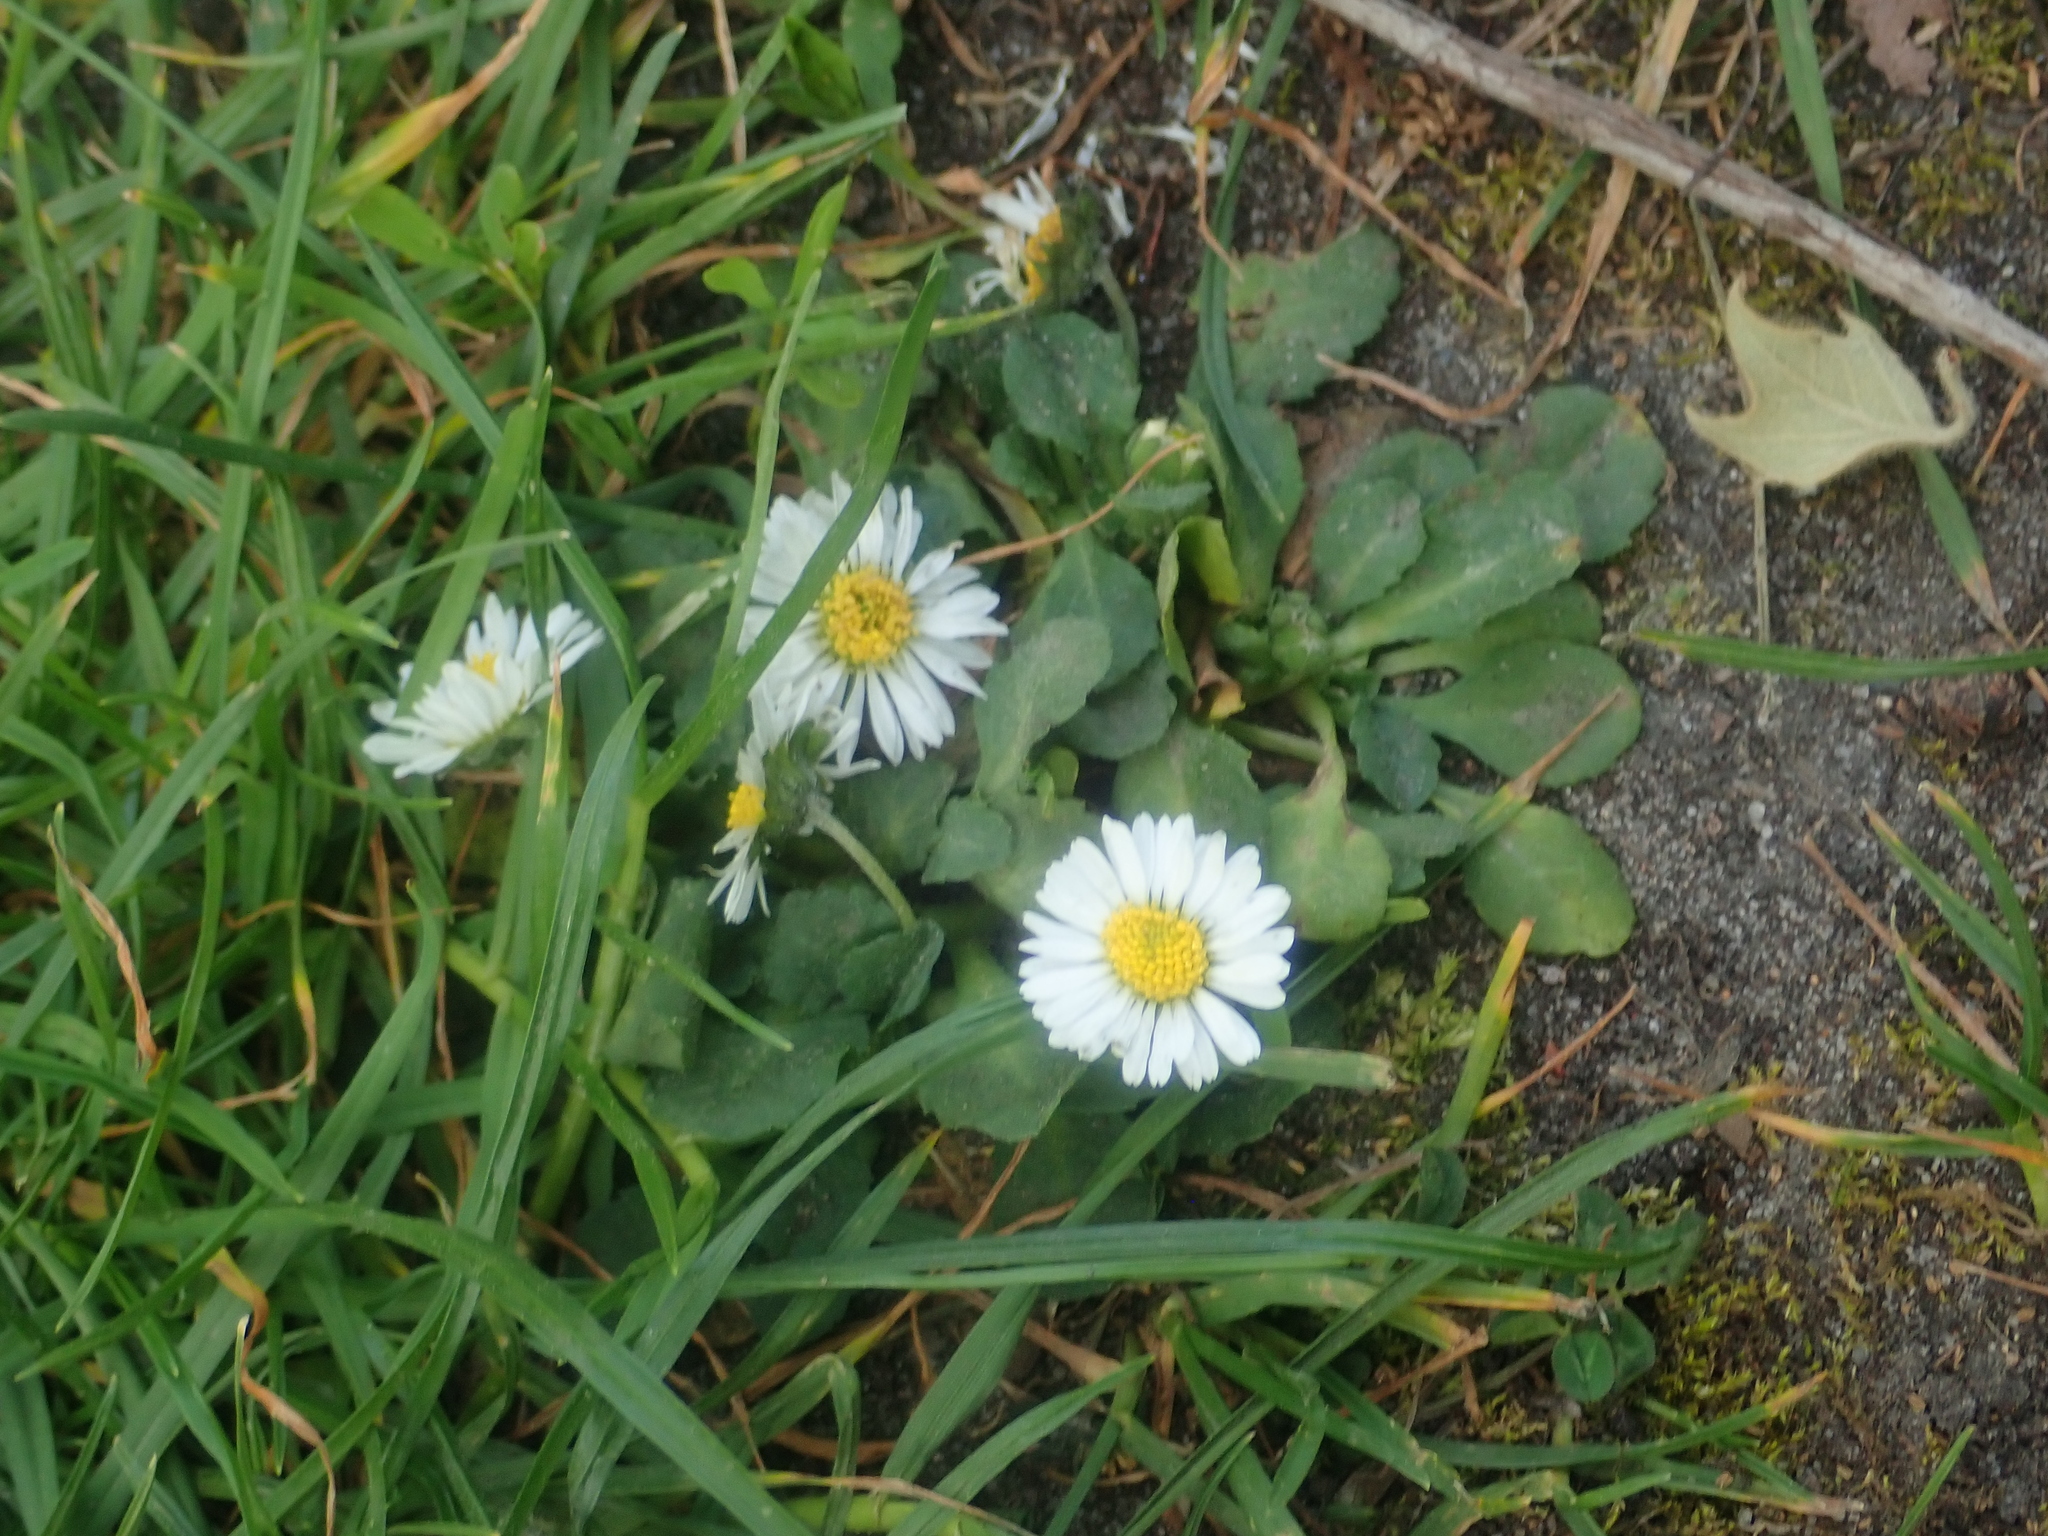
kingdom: Plantae
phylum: Tracheophyta
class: Magnoliopsida
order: Asterales
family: Asteraceae
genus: Bellis
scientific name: Bellis perennis
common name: Lawndaisy
